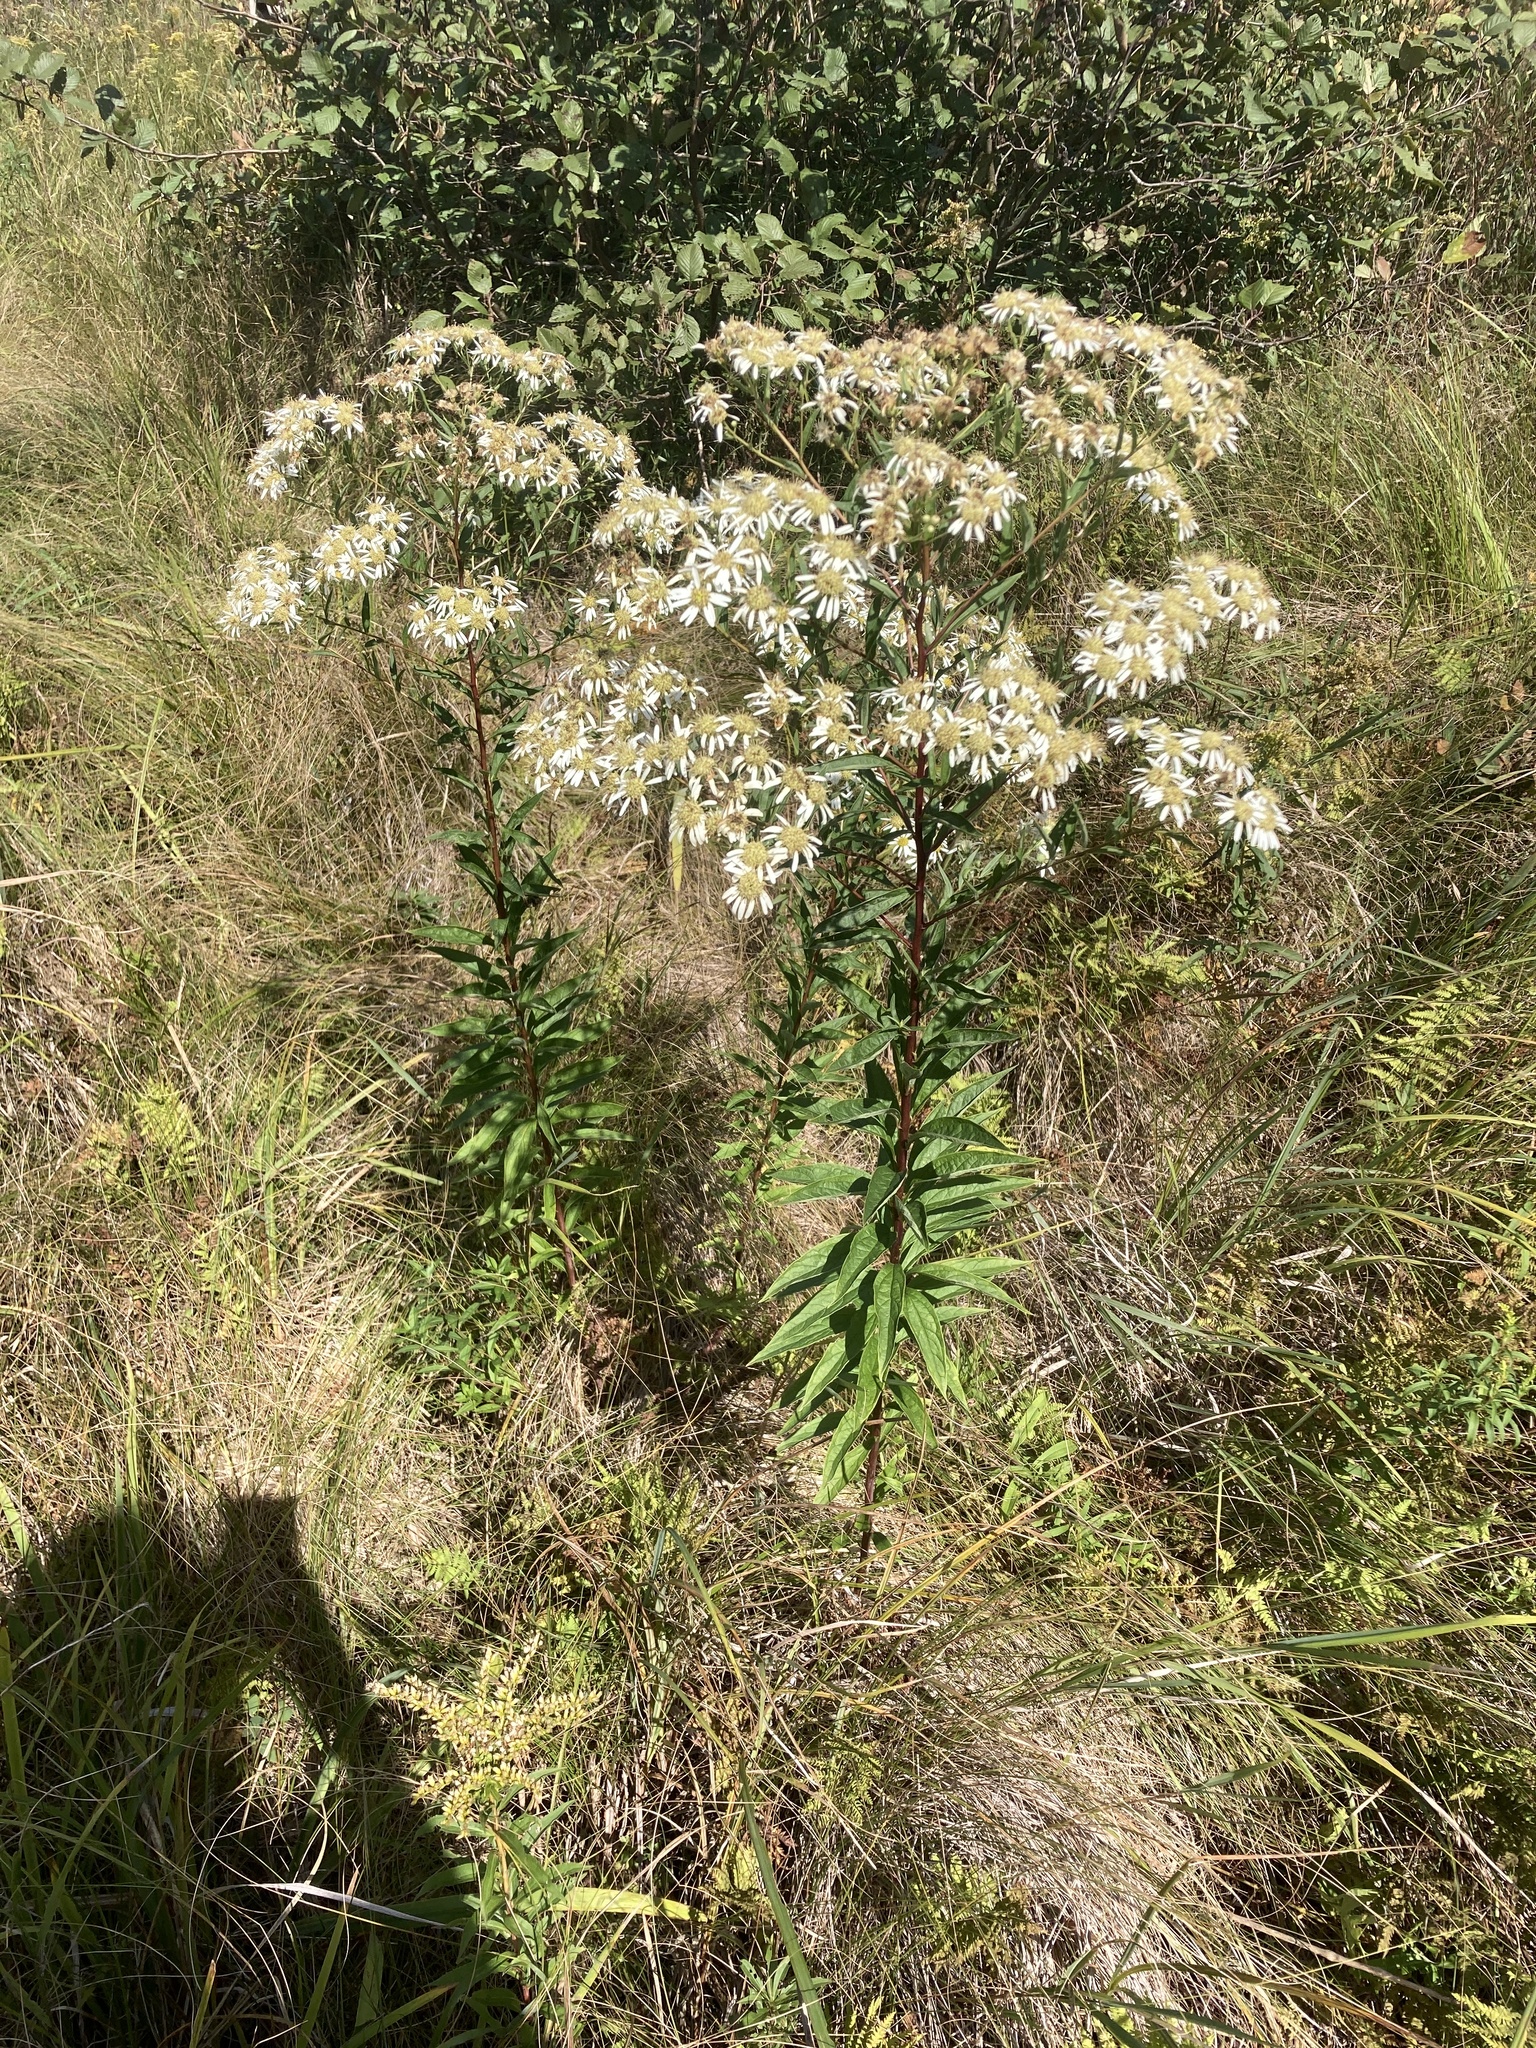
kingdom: Plantae
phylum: Tracheophyta
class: Magnoliopsida
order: Asterales
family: Asteraceae
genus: Doellingeria
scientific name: Doellingeria umbellata
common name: Flat-top white aster
